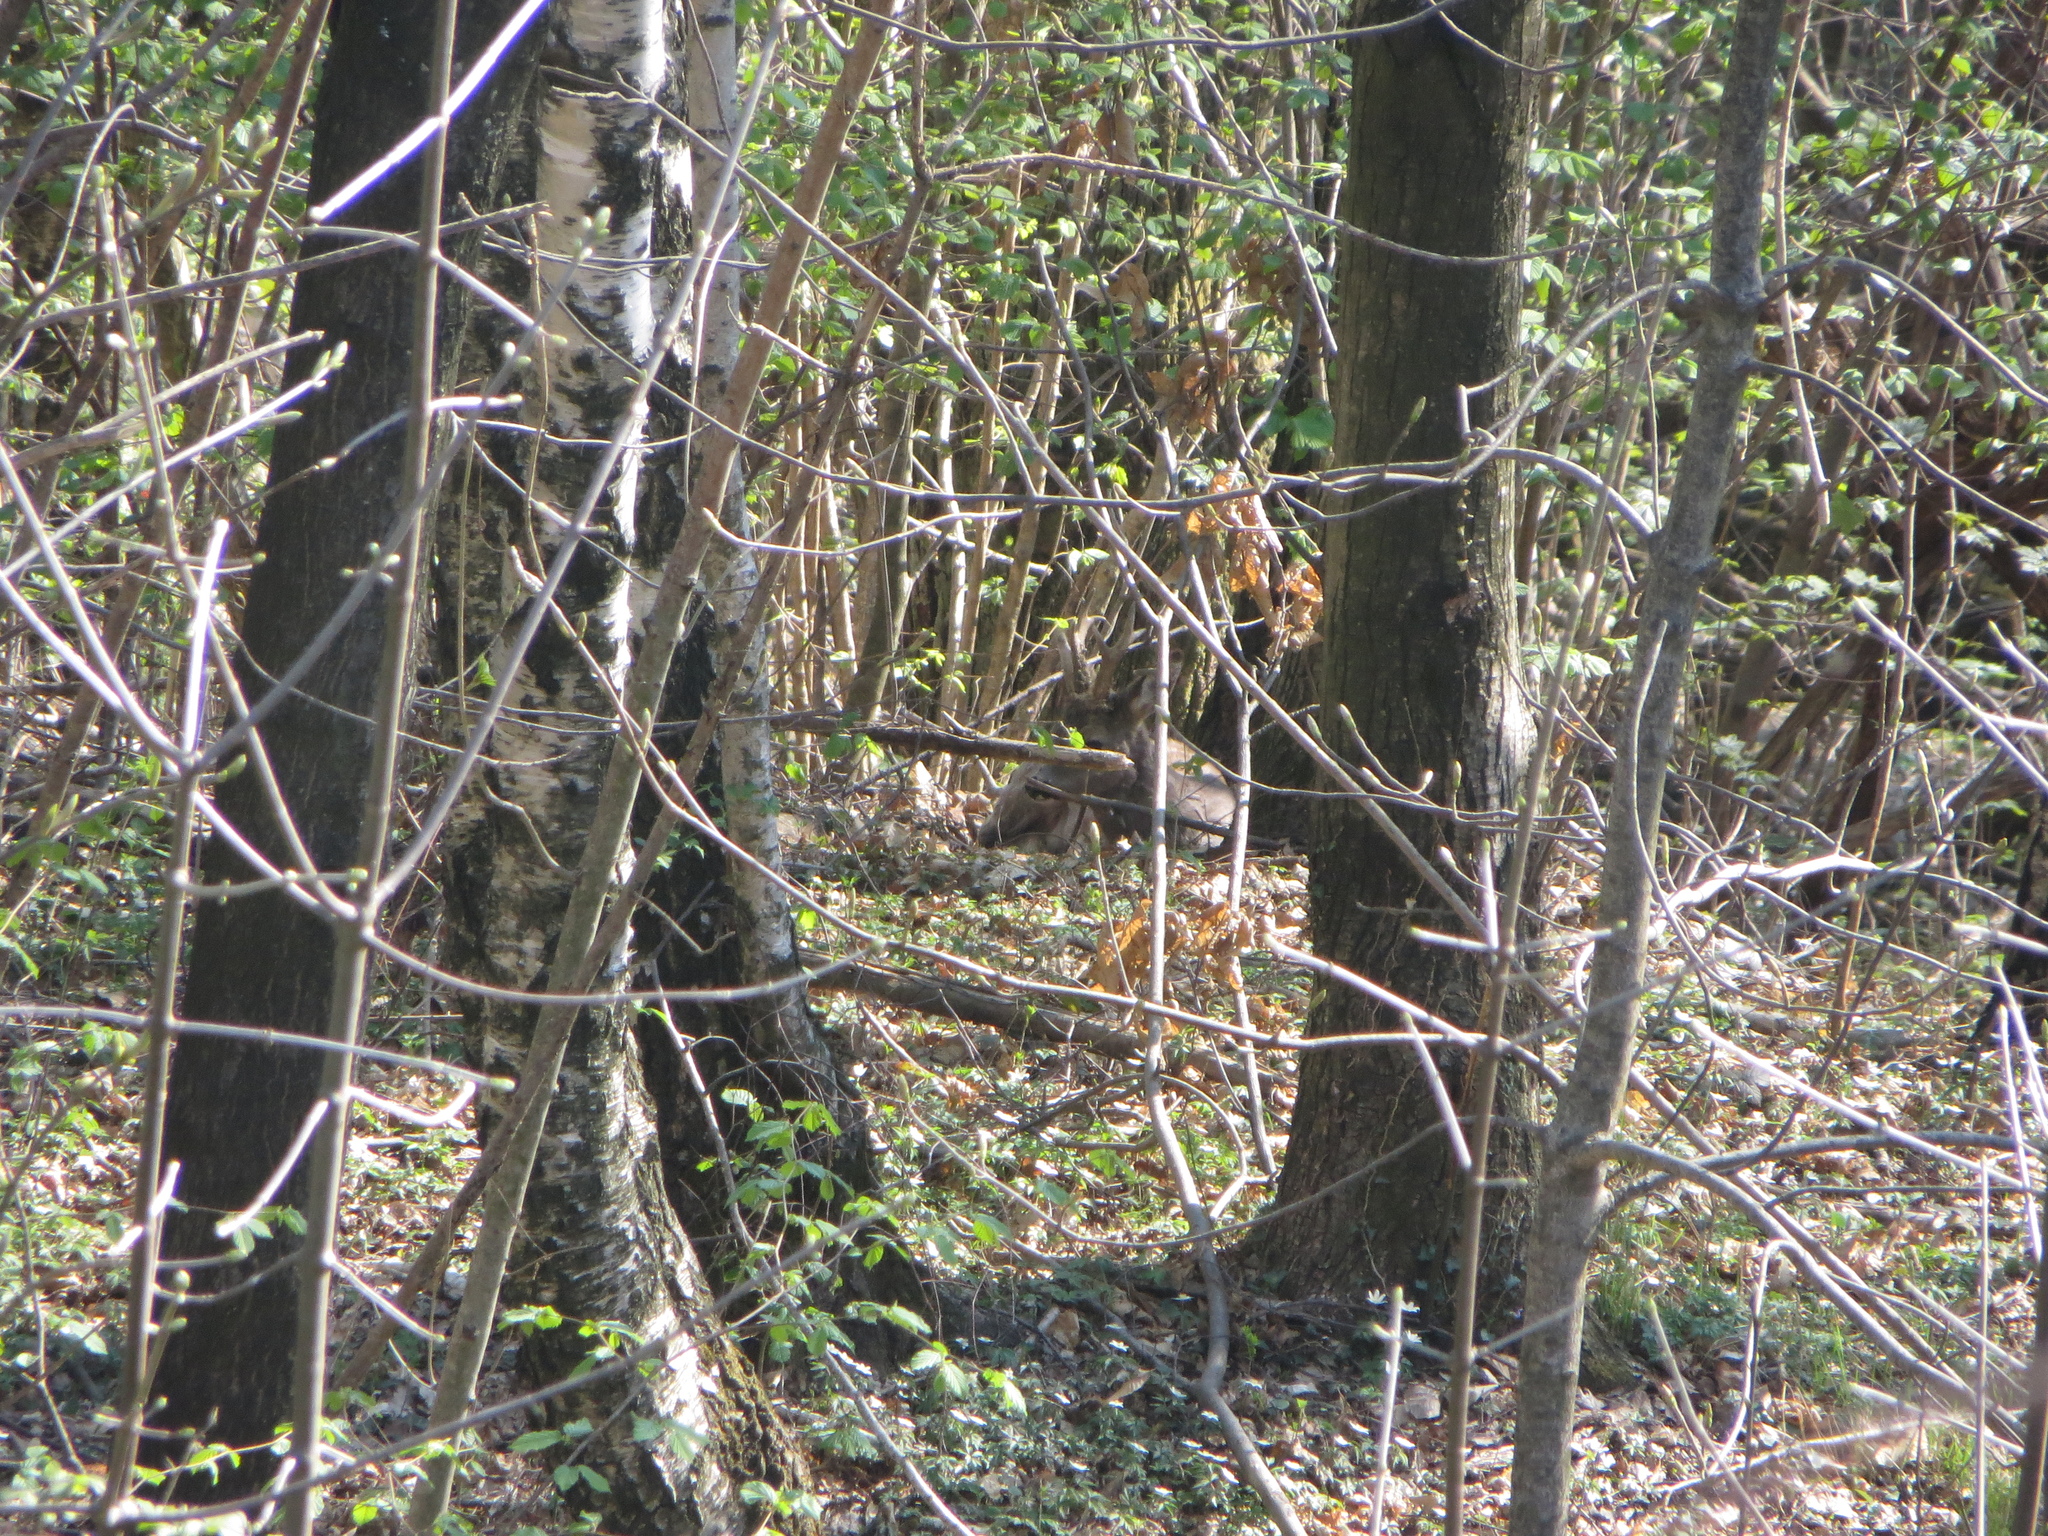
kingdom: Animalia
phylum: Chordata
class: Mammalia
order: Artiodactyla
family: Cervidae
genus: Capreolus
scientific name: Capreolus capreolus
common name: Western roe deer
